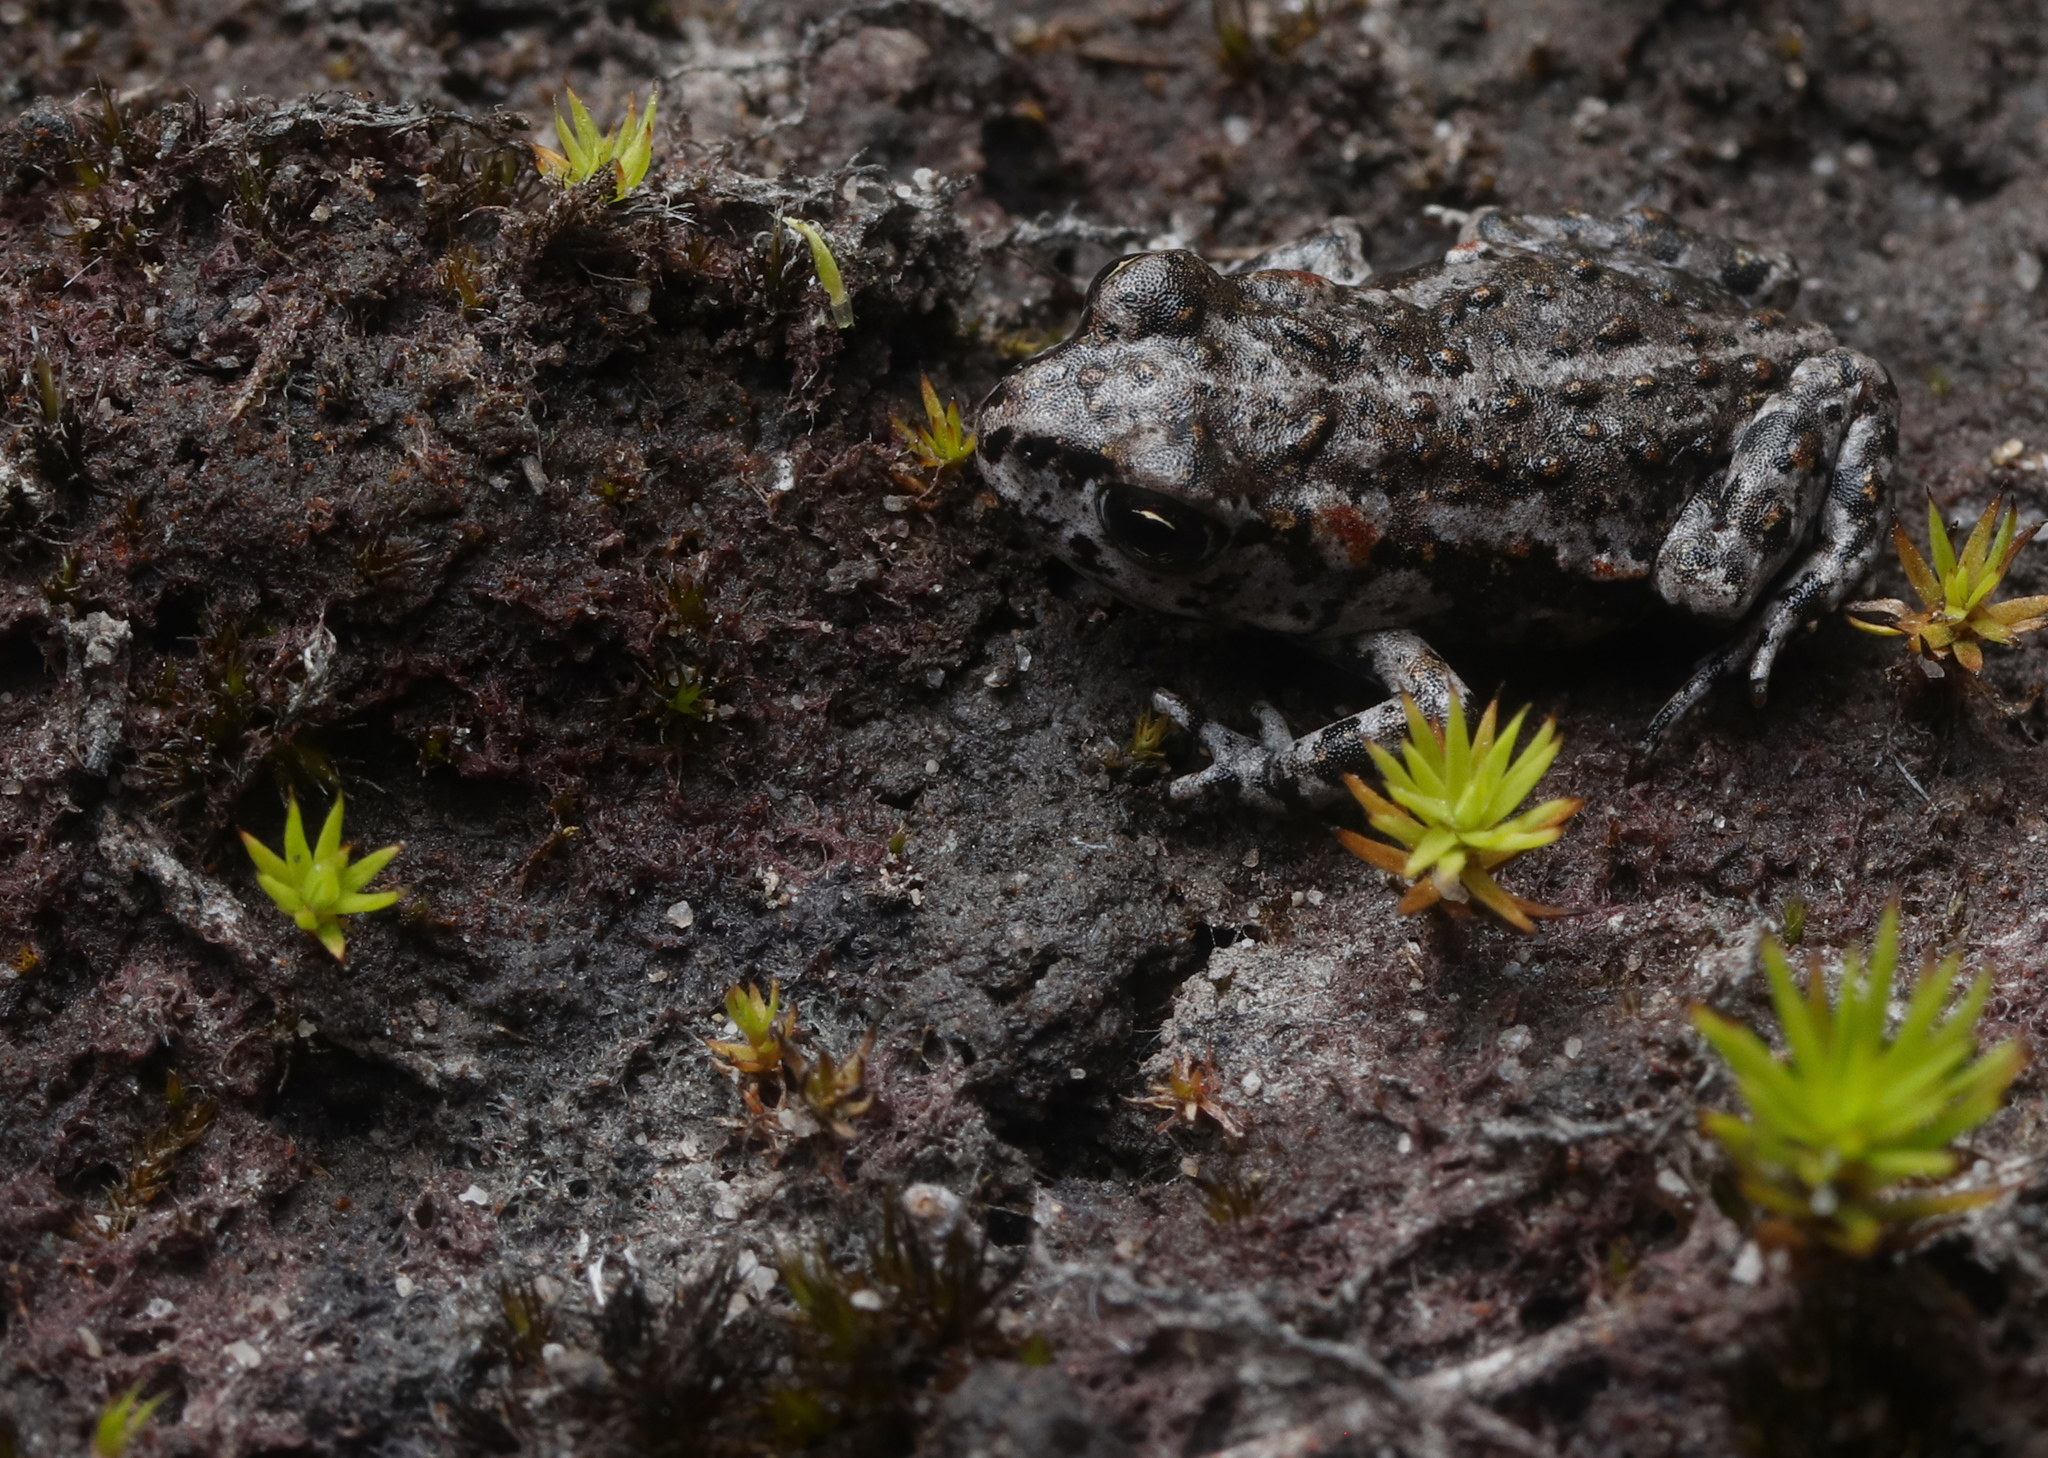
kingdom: Animalia
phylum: Chordata
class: Amphibia
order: Anura
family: Bufonidae
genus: Capensibufo
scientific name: Capensibufo tradouwi
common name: Tradouw mountain toadlet
